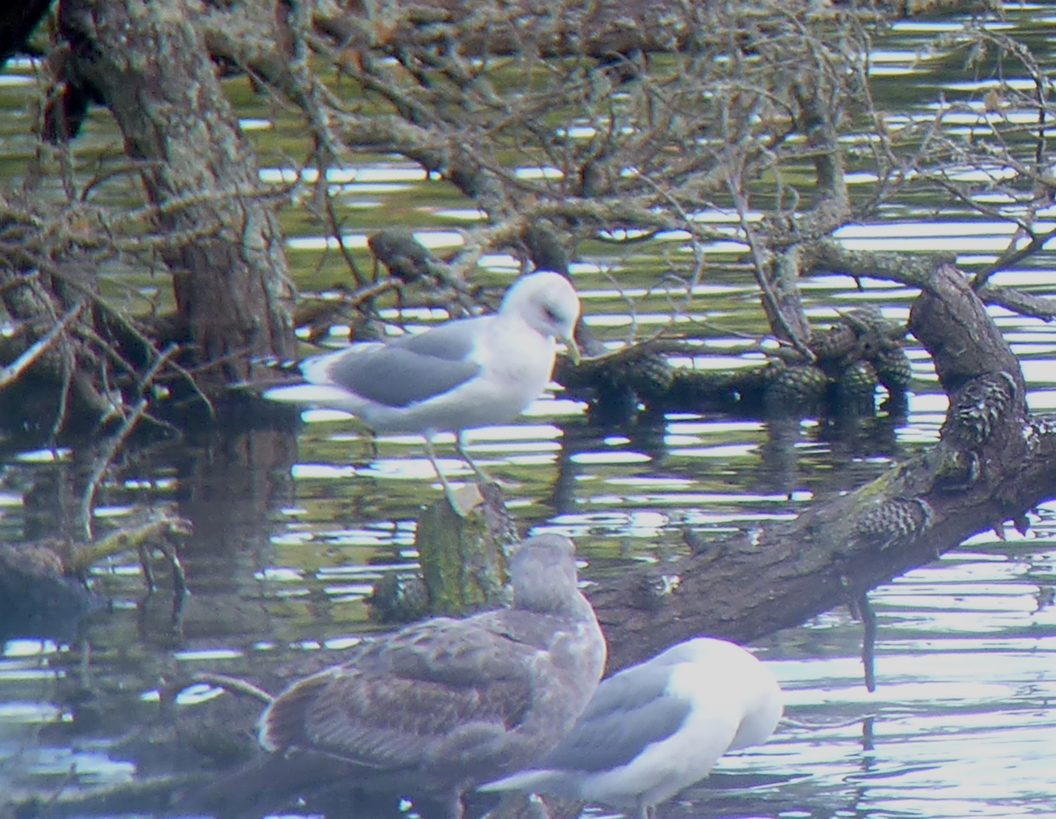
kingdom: Animalia
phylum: Chordata
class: Aves
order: Charadriiformes
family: Laridae
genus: Larus
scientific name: Larus brachyrhynchus
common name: Short-billed gull
